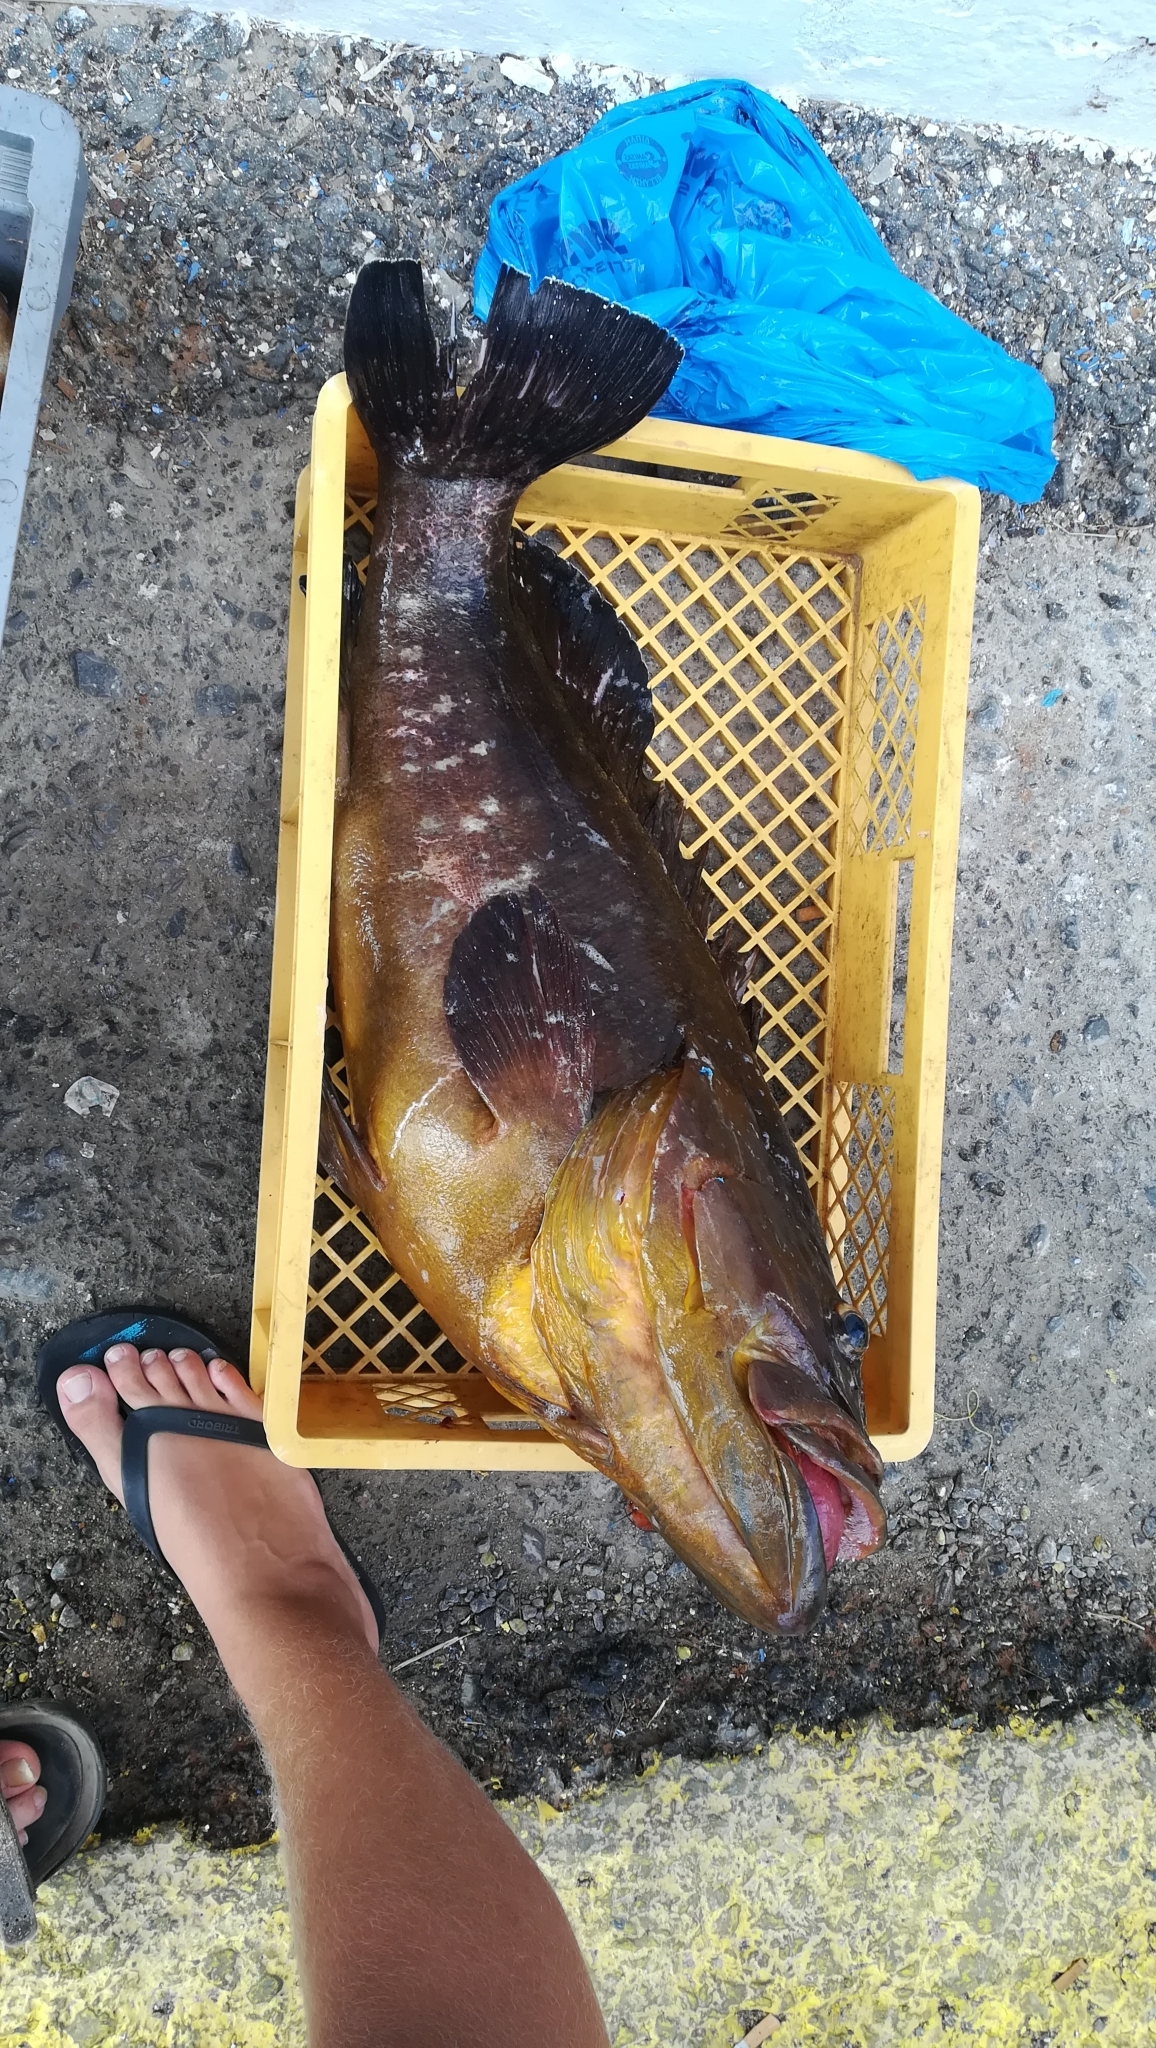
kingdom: Animalia
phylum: Chordata
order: Perciformes
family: Serranidae
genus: Epinephelus
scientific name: Epinephelus marginatus
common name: Dusky grouper
